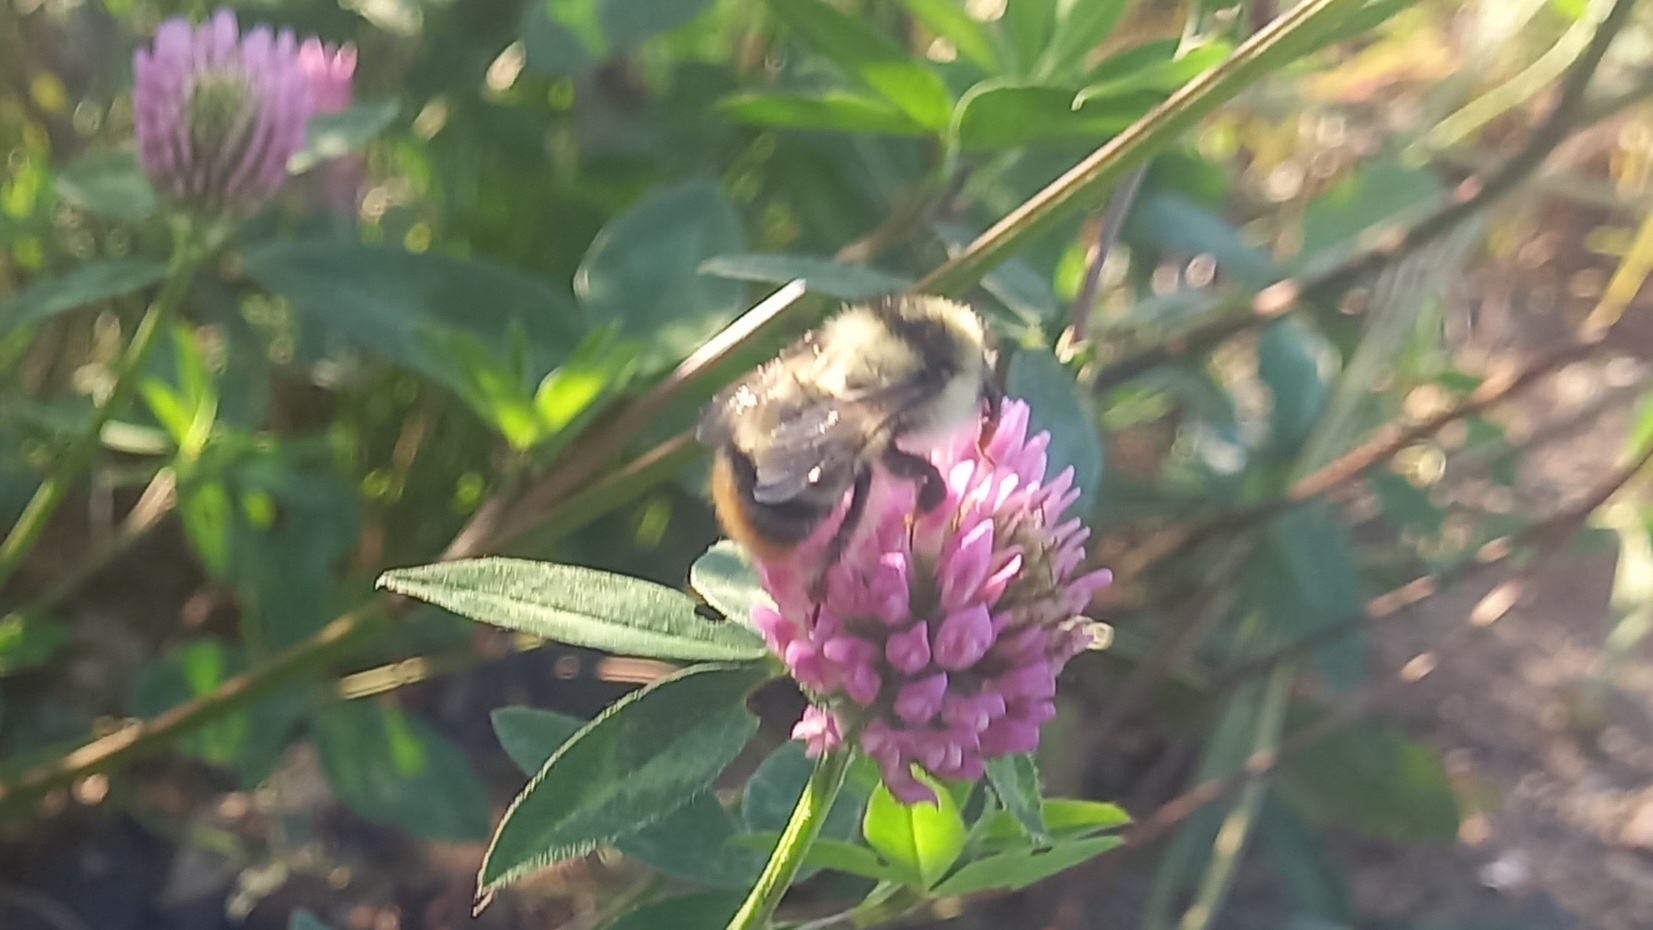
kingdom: Animalia
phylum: Arthropoda
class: Insecta
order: Hymenoptera
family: Apidae
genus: Bombus
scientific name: Bombus sylvarum
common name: Shrill carder bee
